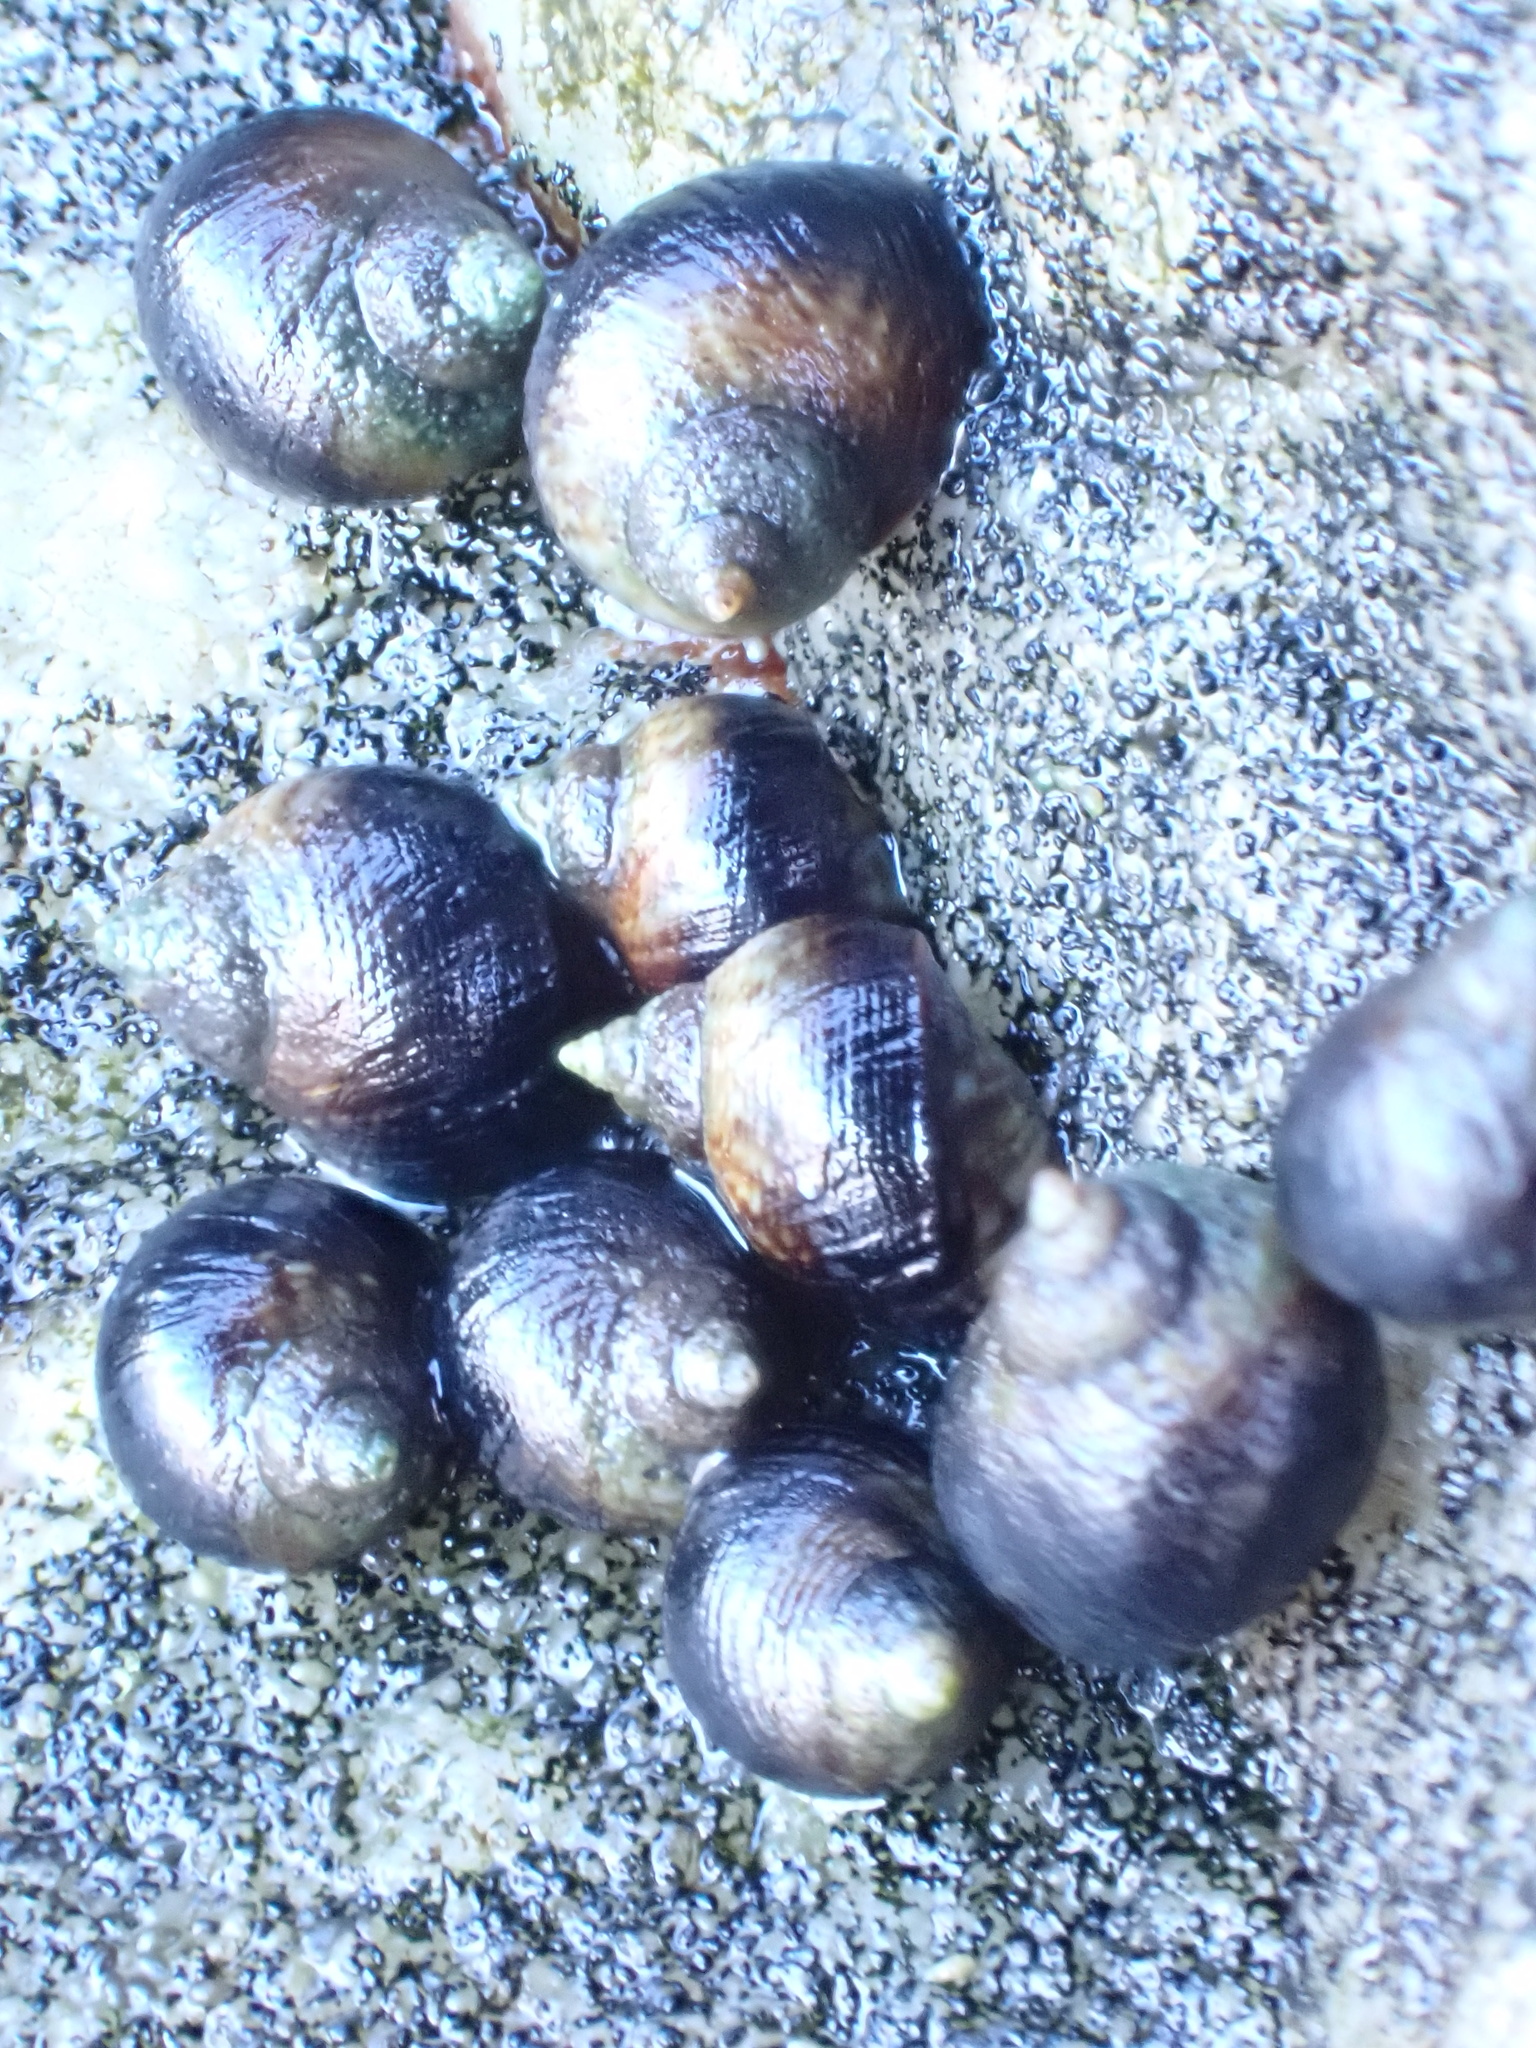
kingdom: Animalia
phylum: Mollusca
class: Gastropoda
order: Littorinimorpha
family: Littorinidae
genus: Afrolittorina
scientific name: Afrolittorina knysnaensis
